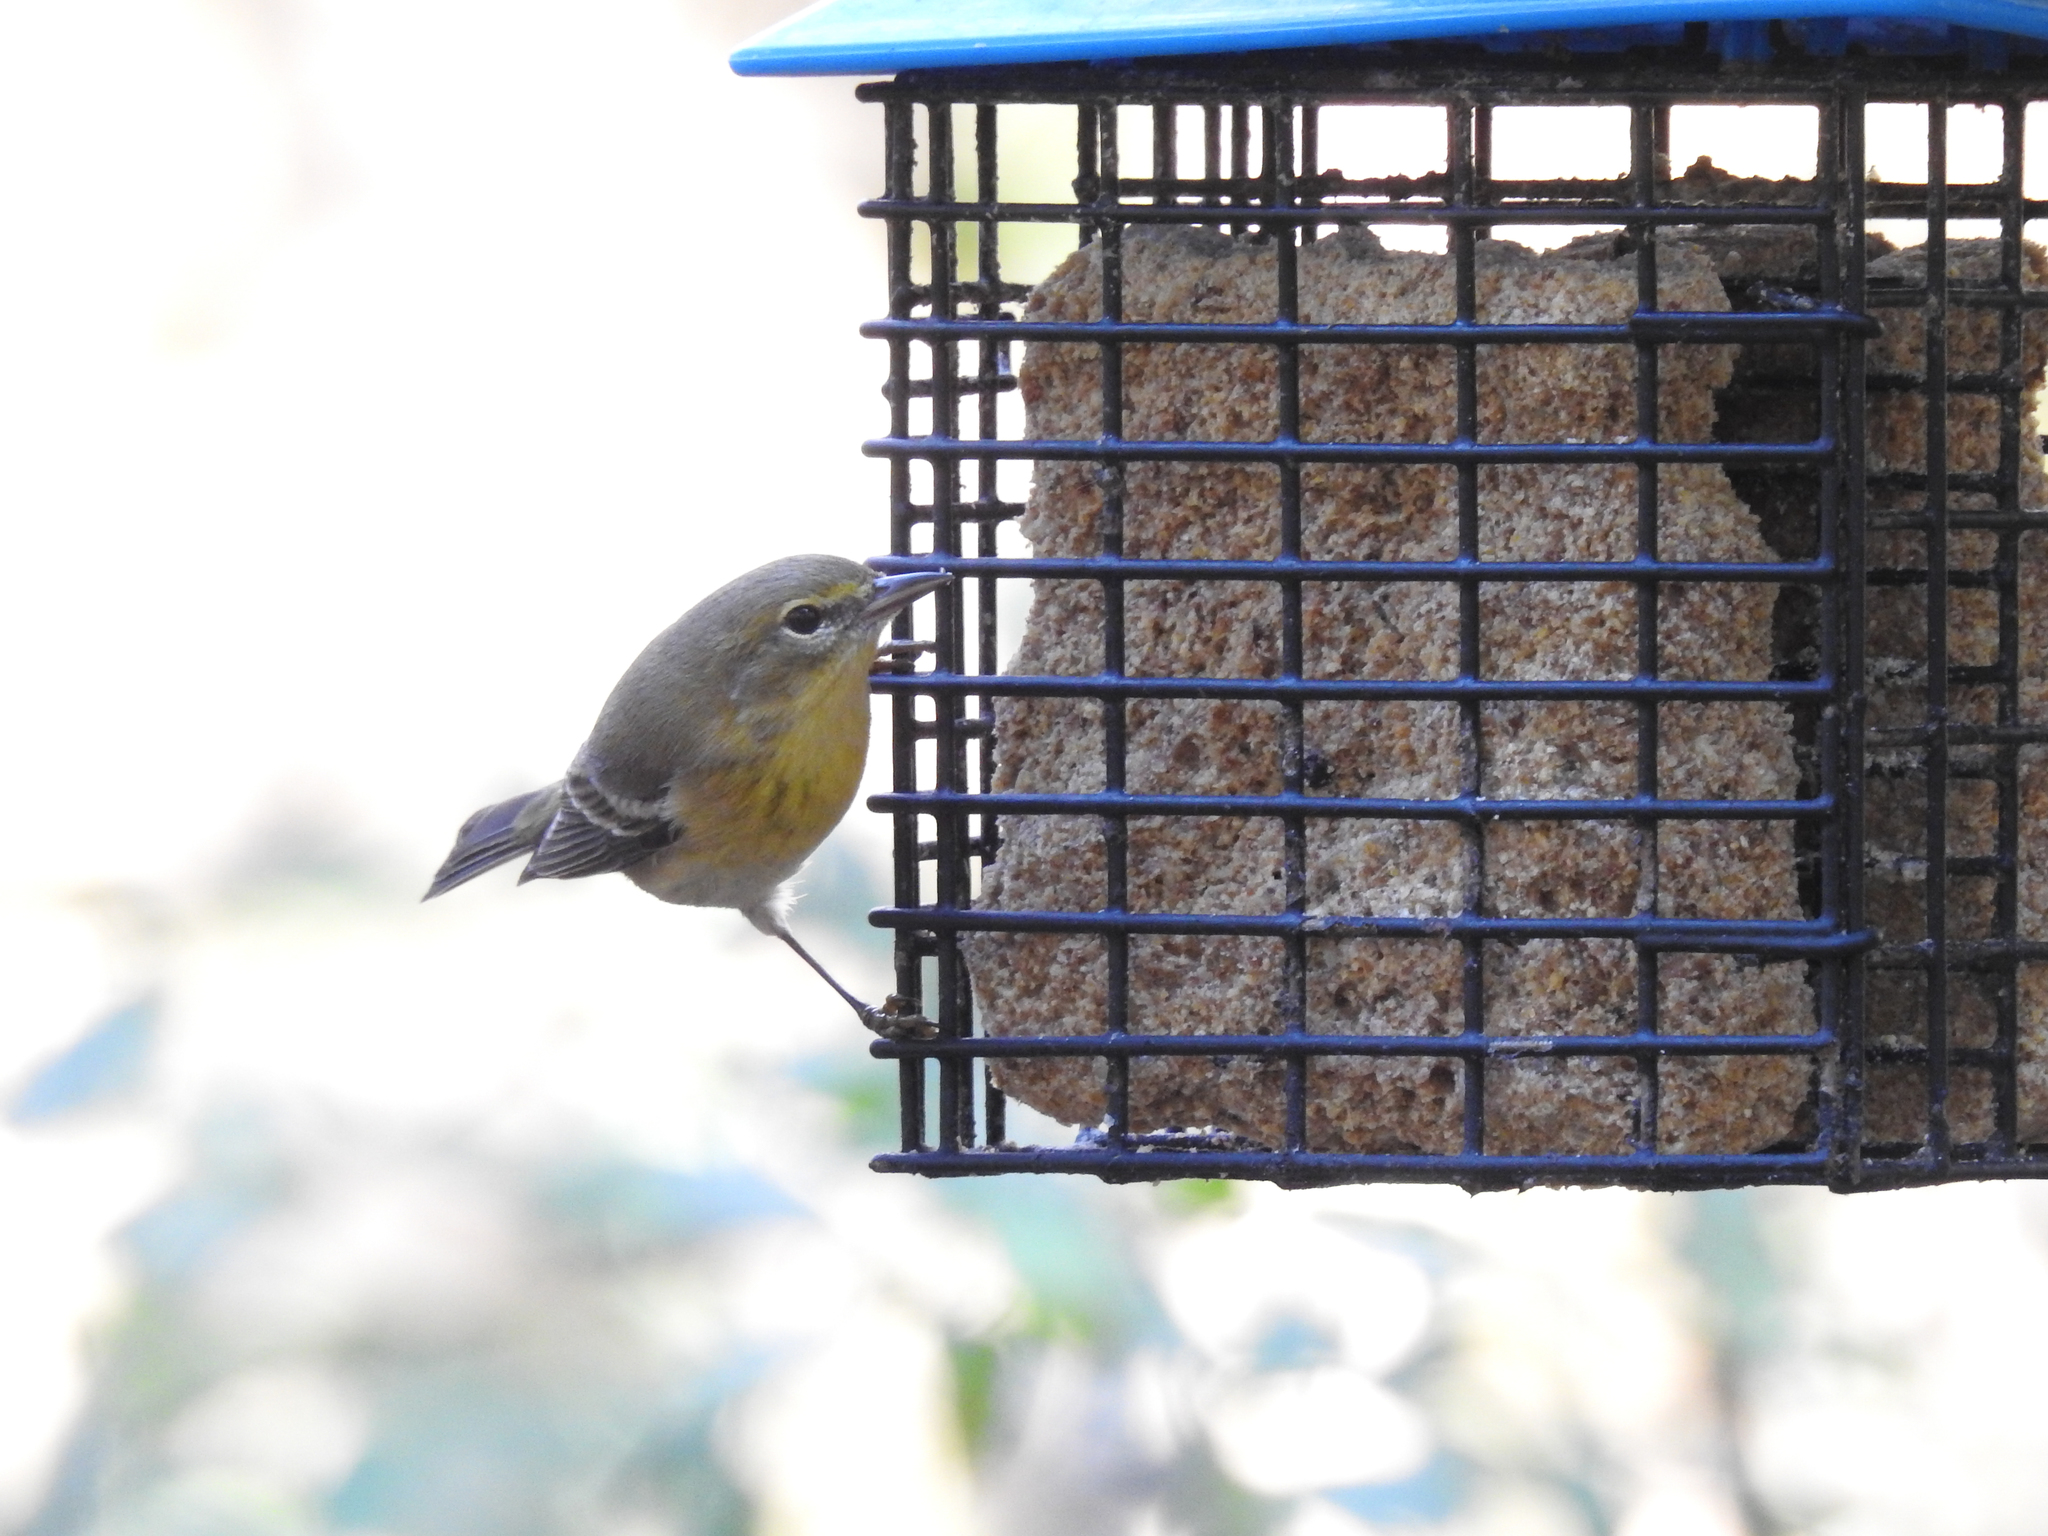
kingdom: Animalia
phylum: Chordata
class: Aves
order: Passeriformes
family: Parulidae
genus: Setophaga
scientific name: Setophaga pinus
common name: Pine warbler
